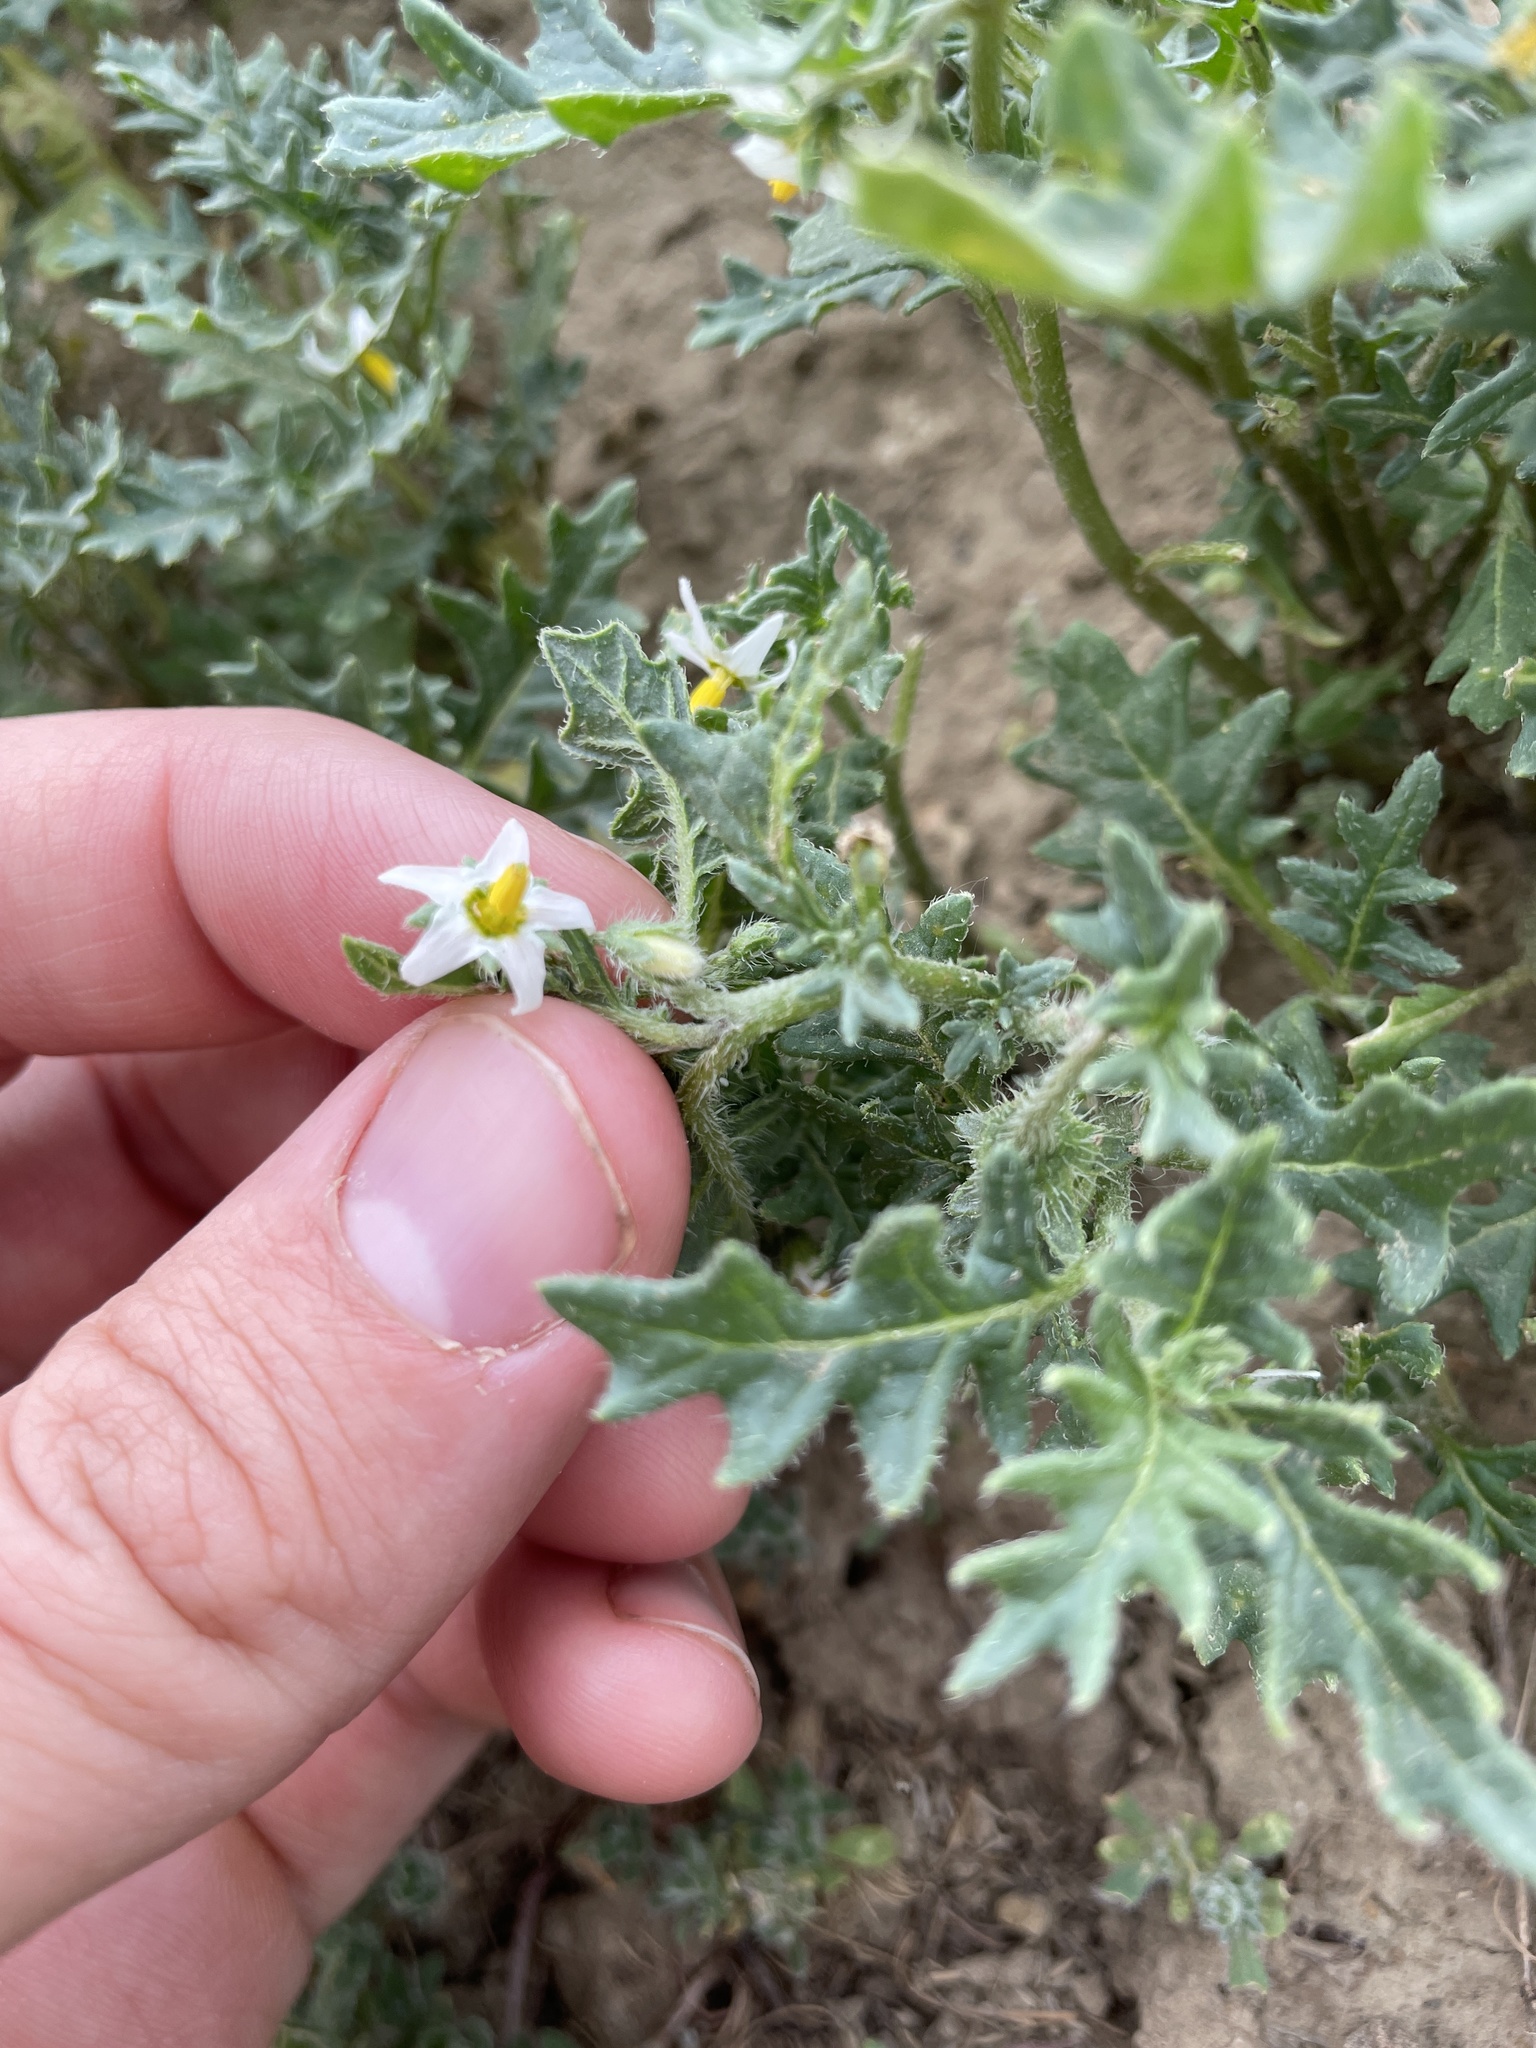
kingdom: Plantae
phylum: Tracheophyta
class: Magnoliopsida
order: Solanales
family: Solanaceae
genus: Solanum
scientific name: Solanum triflorum
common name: Small nightshade
